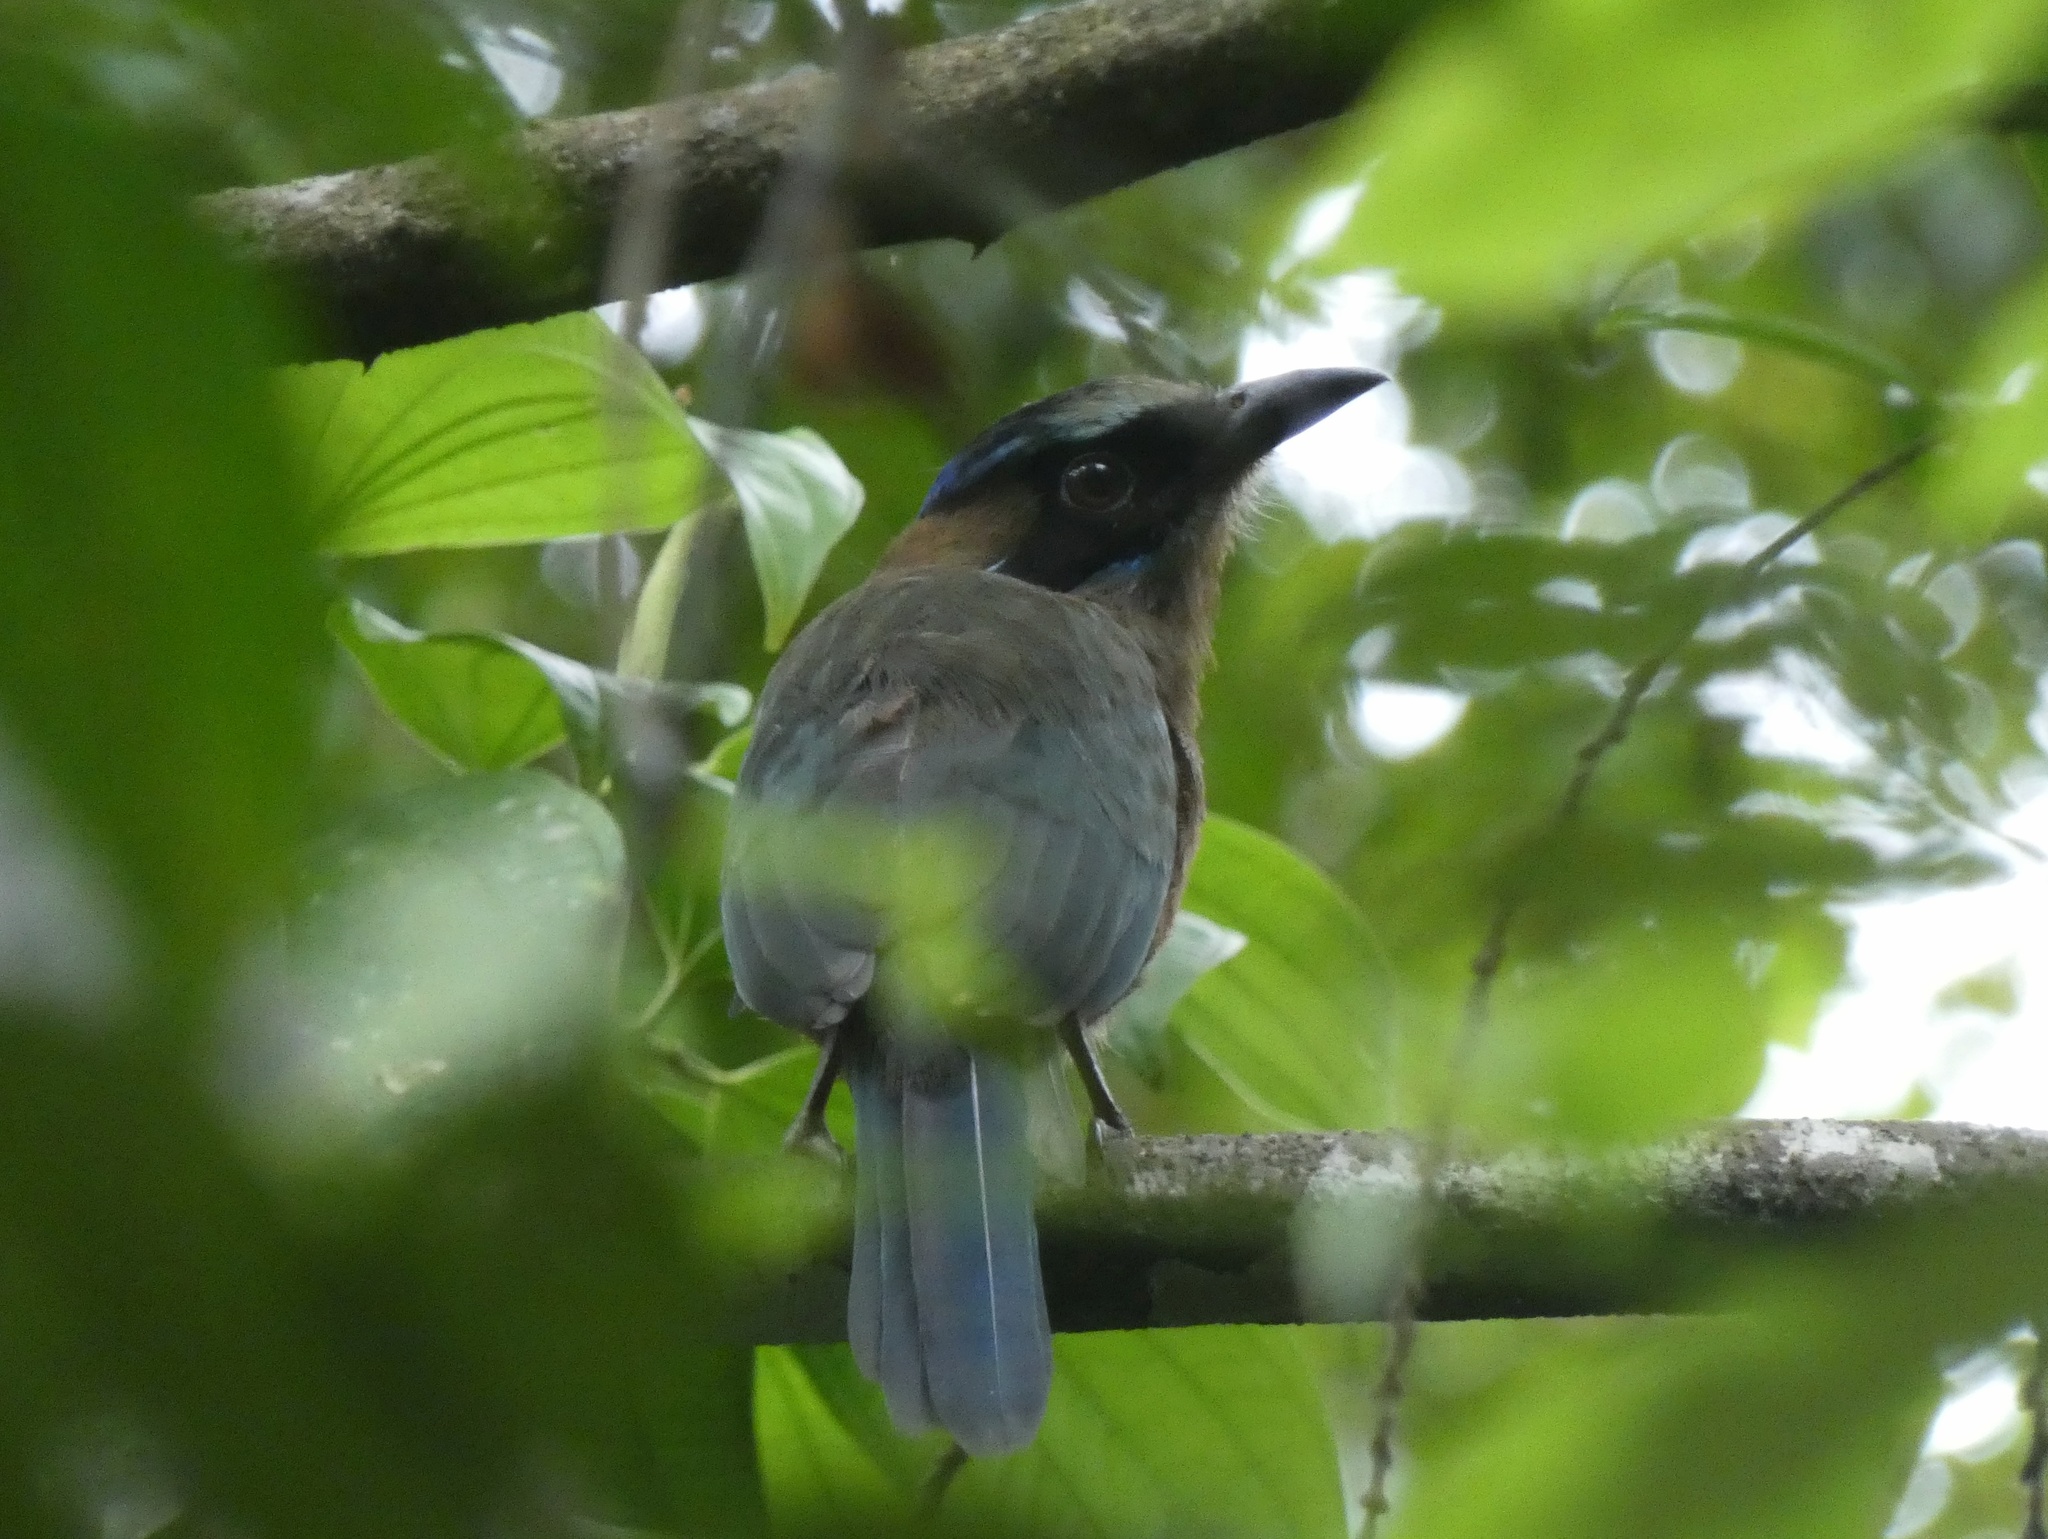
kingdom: Animalia
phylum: Chordata
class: Aves
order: Coraciiformes
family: Momotidae
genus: Momotus
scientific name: Momotus subrufescens
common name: Whooping motmot
